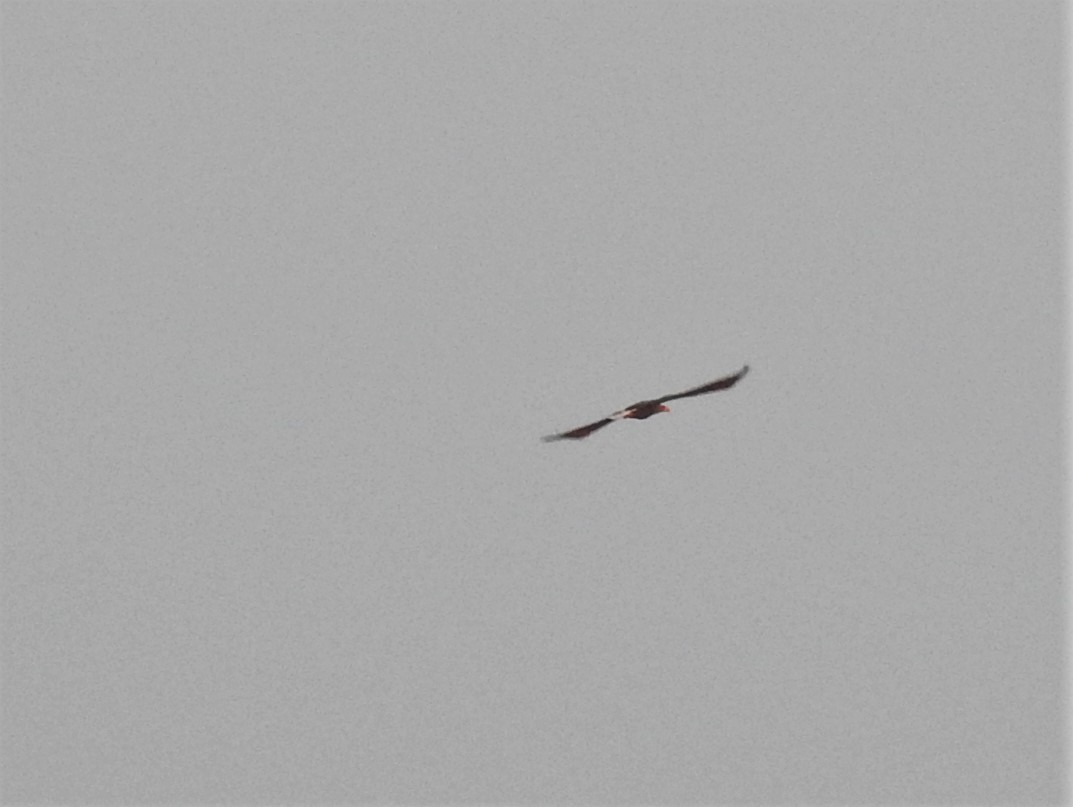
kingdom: Animalia
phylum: Chordata
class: Aves
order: Accipitriformes
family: Accipitridae
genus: Haliaeetus
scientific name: Haliaeetus albicilla
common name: White-tailed eagle
